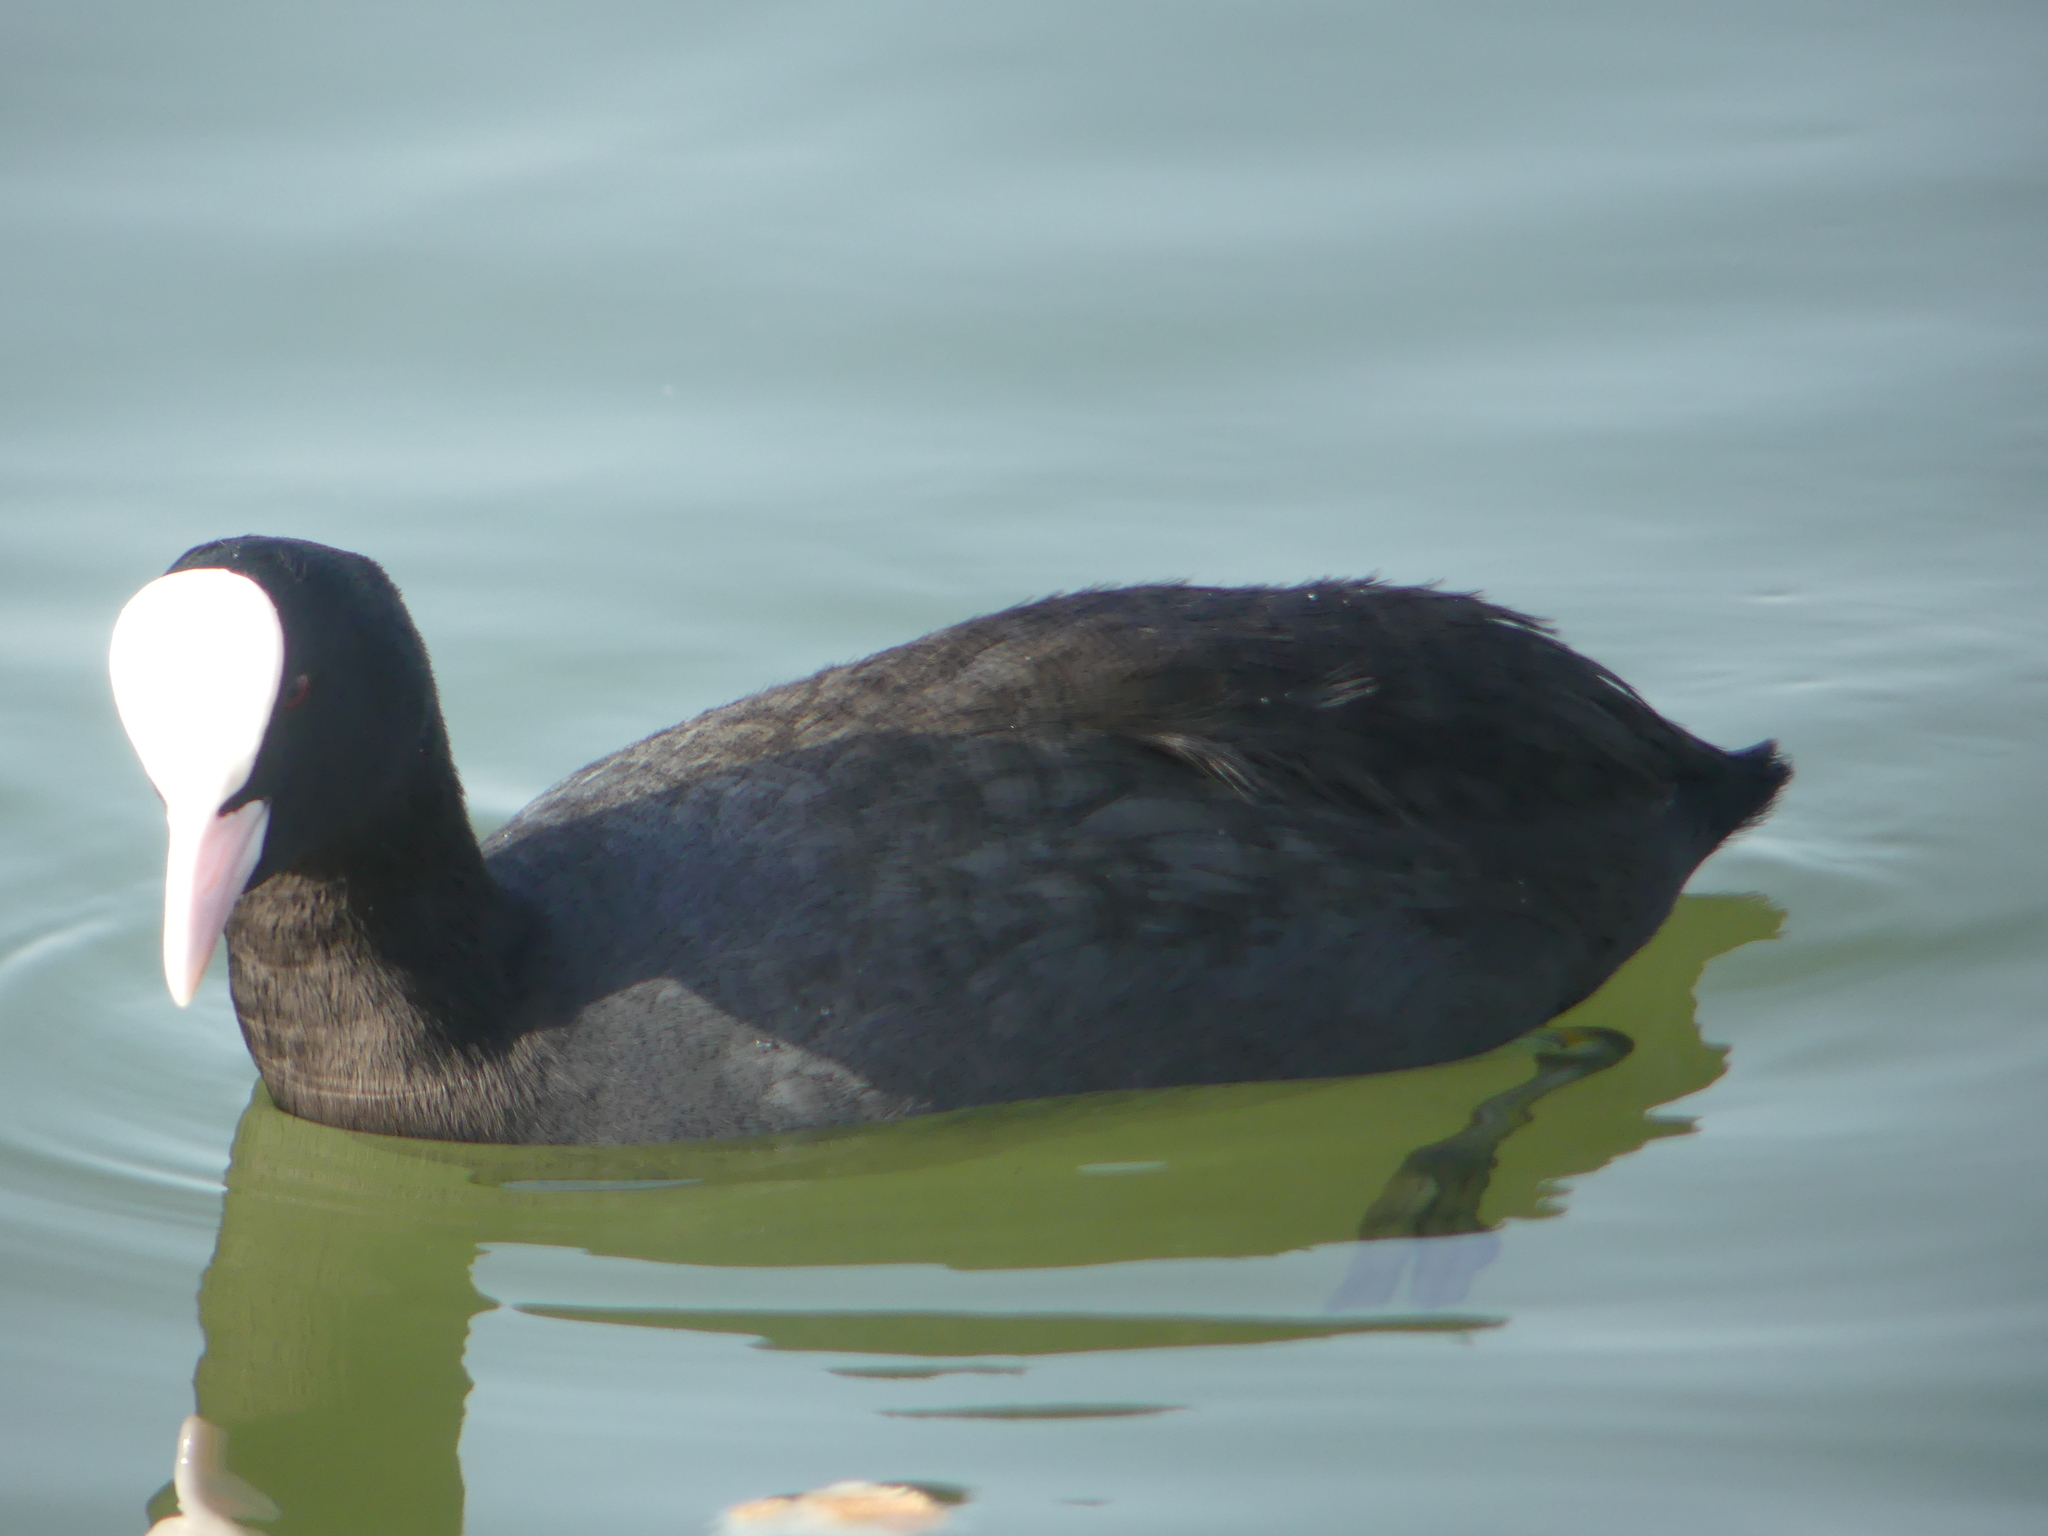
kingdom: Animalia
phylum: Chordata
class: Aves
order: Gruiformes
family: Rallidae
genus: Fulica
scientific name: Fulica atra
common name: Eurasian coot
